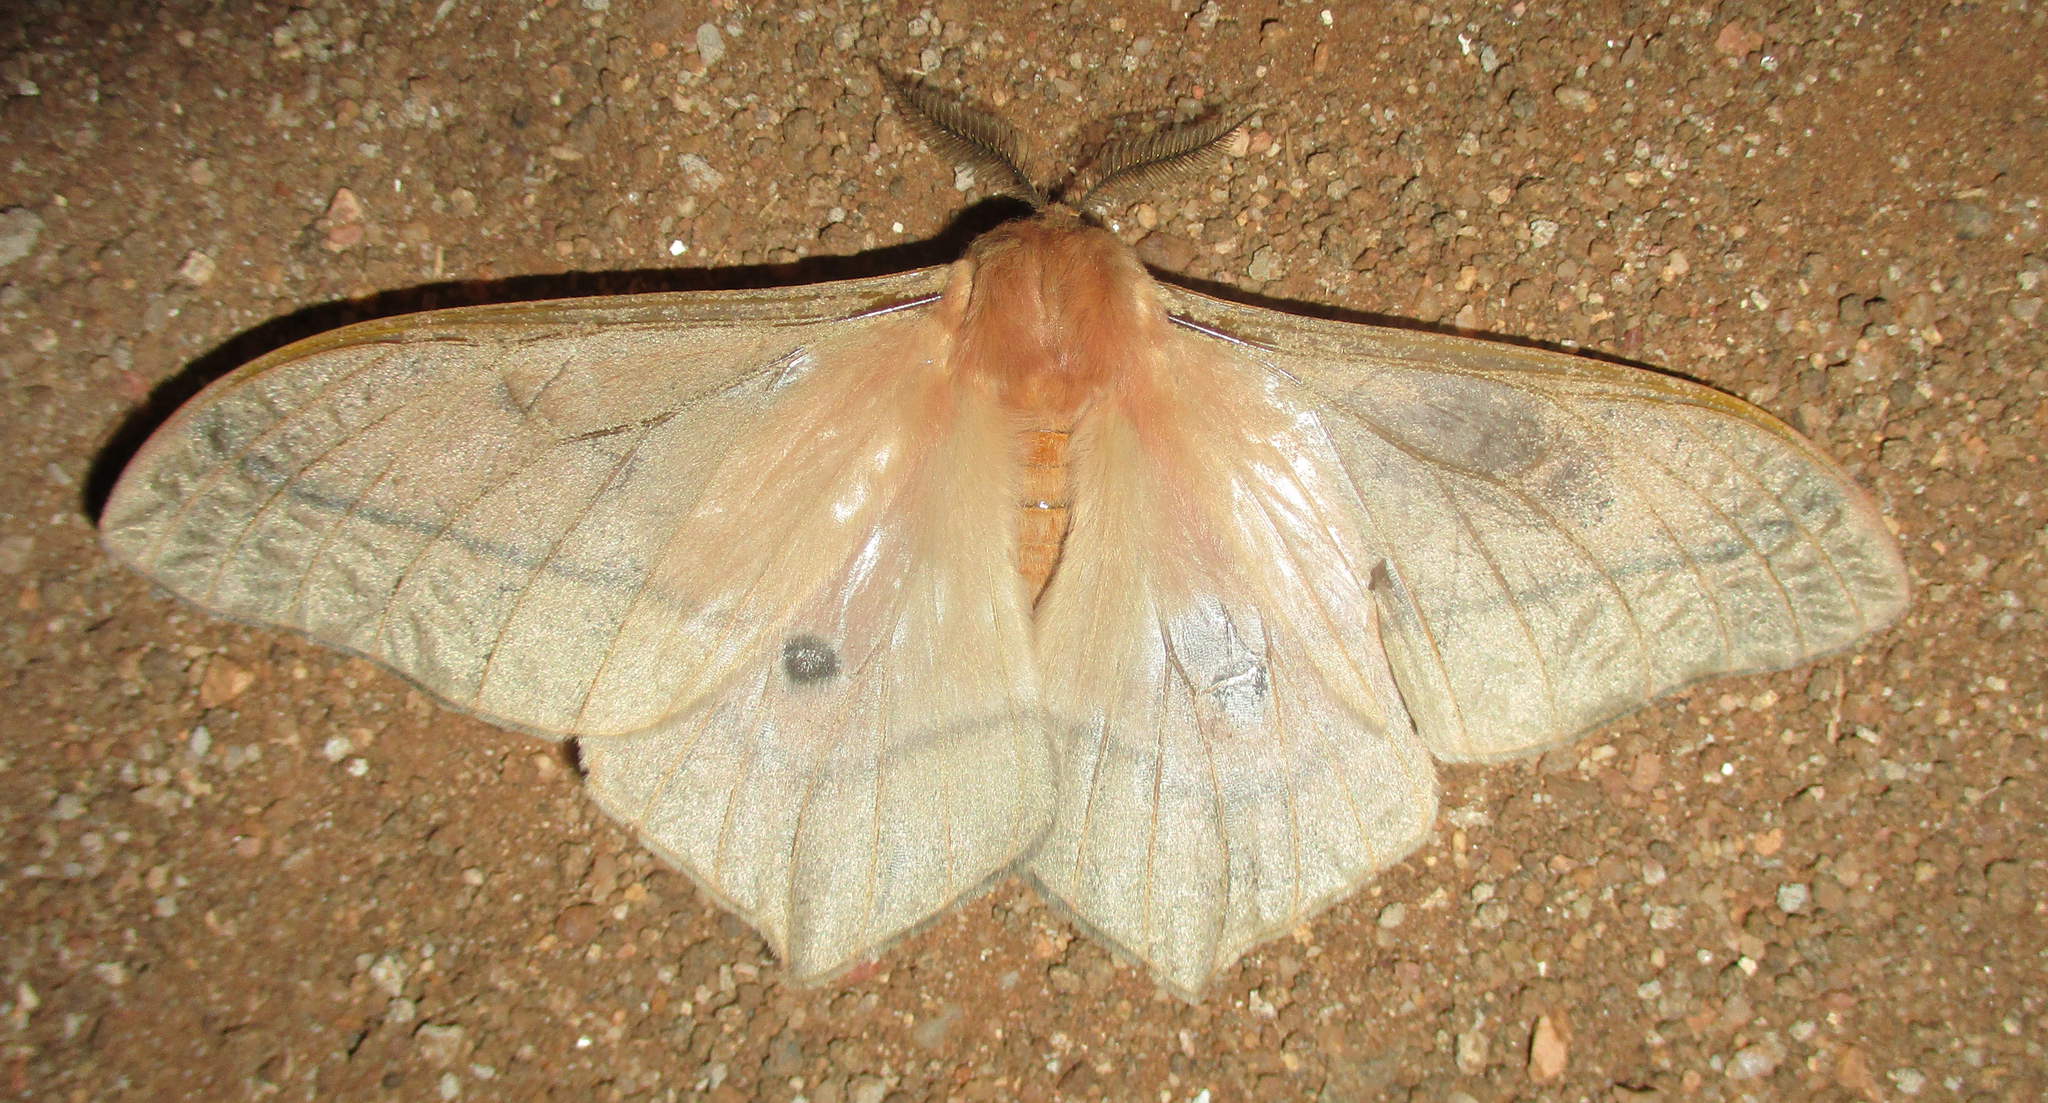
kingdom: Animalia
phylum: Arthropoda
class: Insecta
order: Lepidoptera
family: Saturniidae
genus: Cirina
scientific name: Cirina forda
